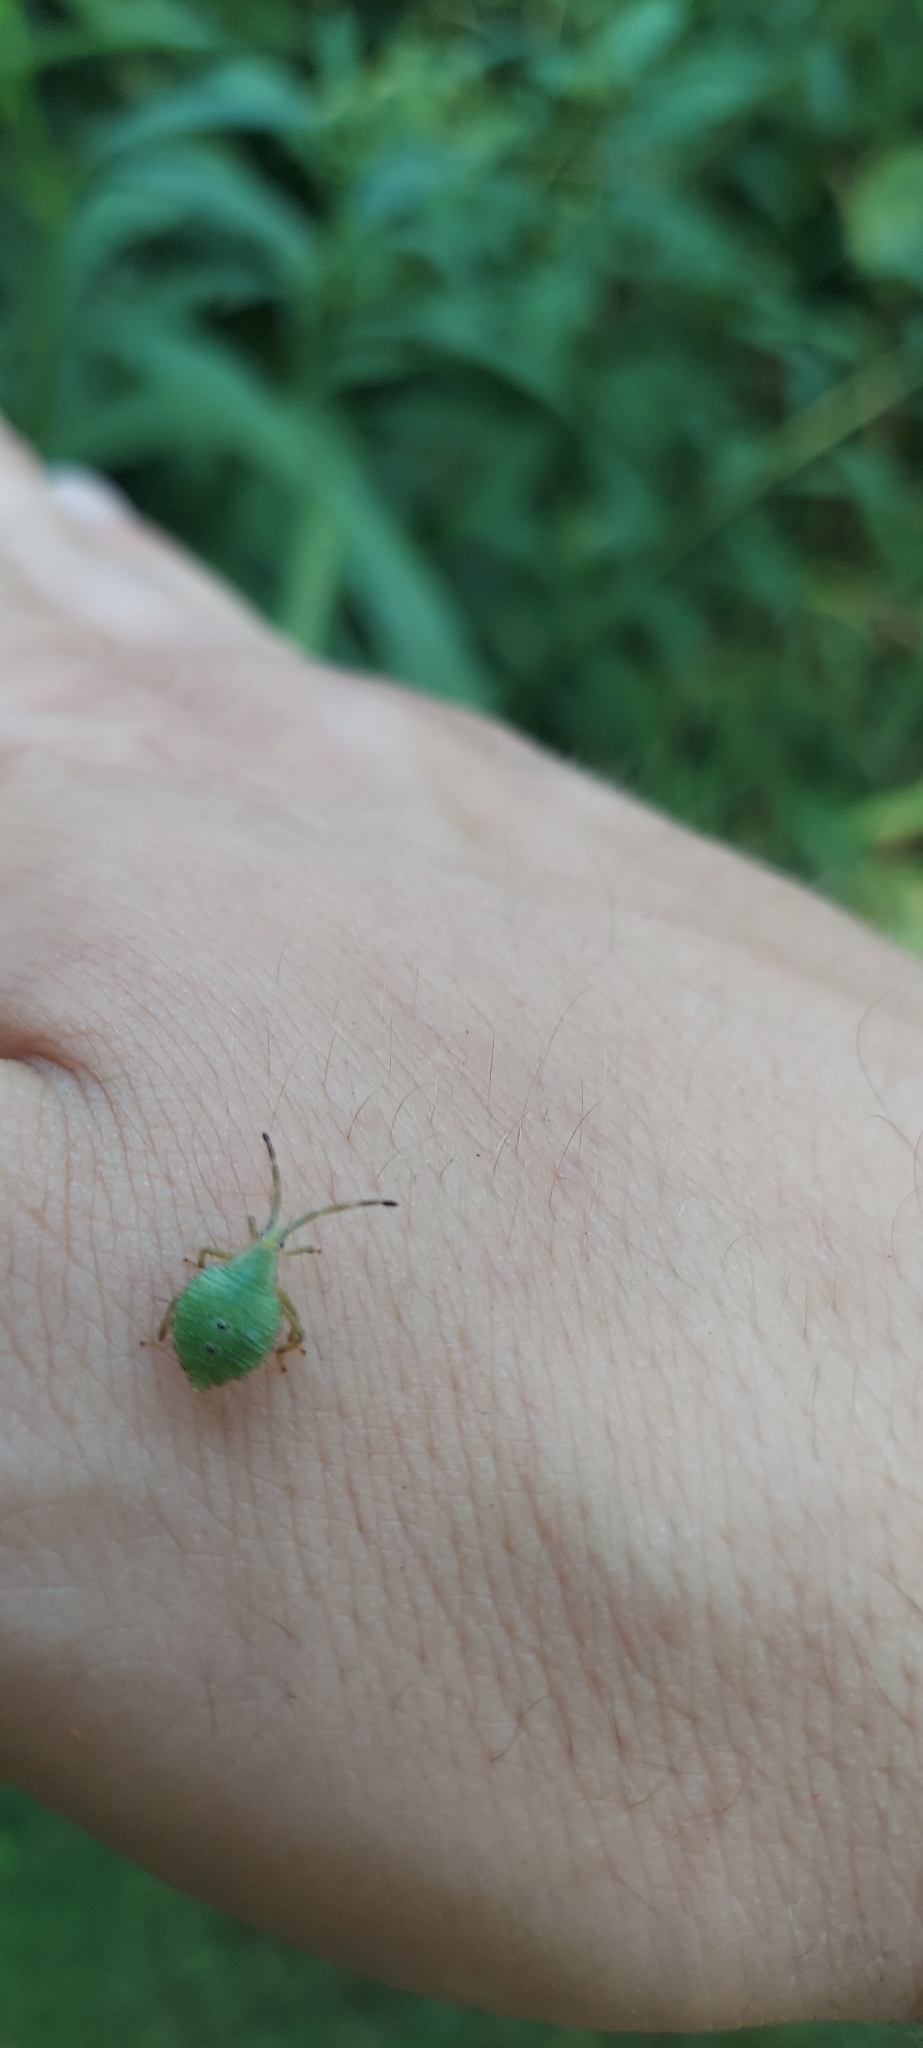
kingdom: Animalia
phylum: Arthropoda
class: Insecta
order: Hemiptera
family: Coreidae
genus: Piezogaster
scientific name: Piezogaster calcarator
